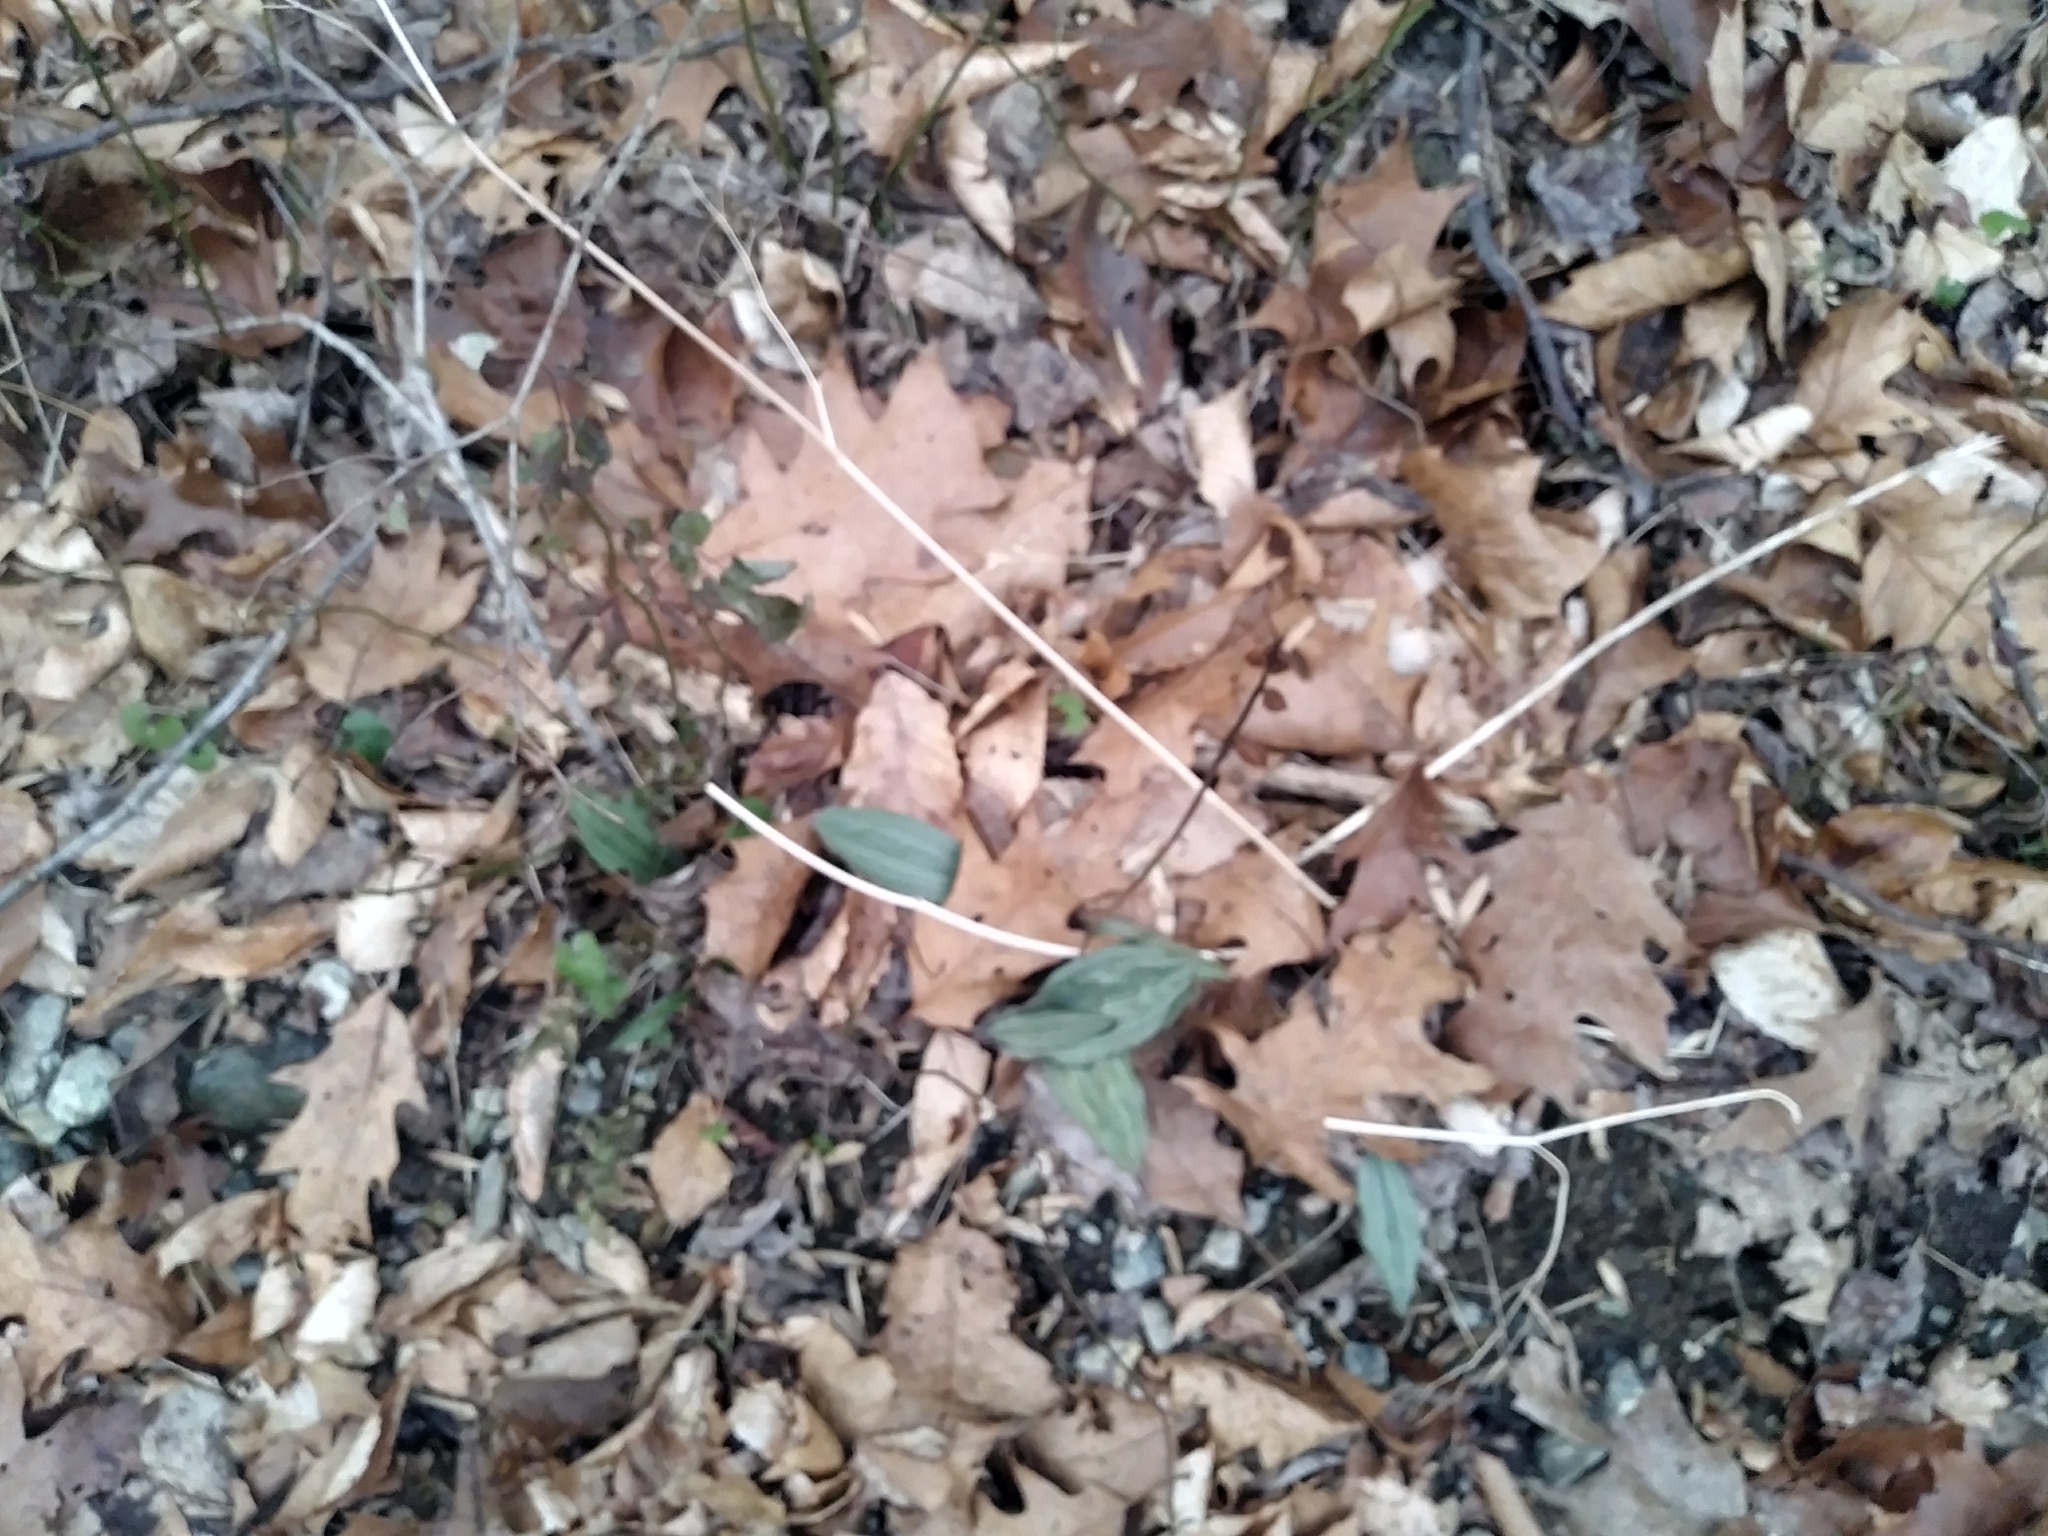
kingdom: Plantae
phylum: Tracheophyta
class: Liliopsida
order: Asparagales
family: Orchidaceae
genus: Aplectrum
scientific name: Aplectrum hyemale
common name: Adam-and-eve
